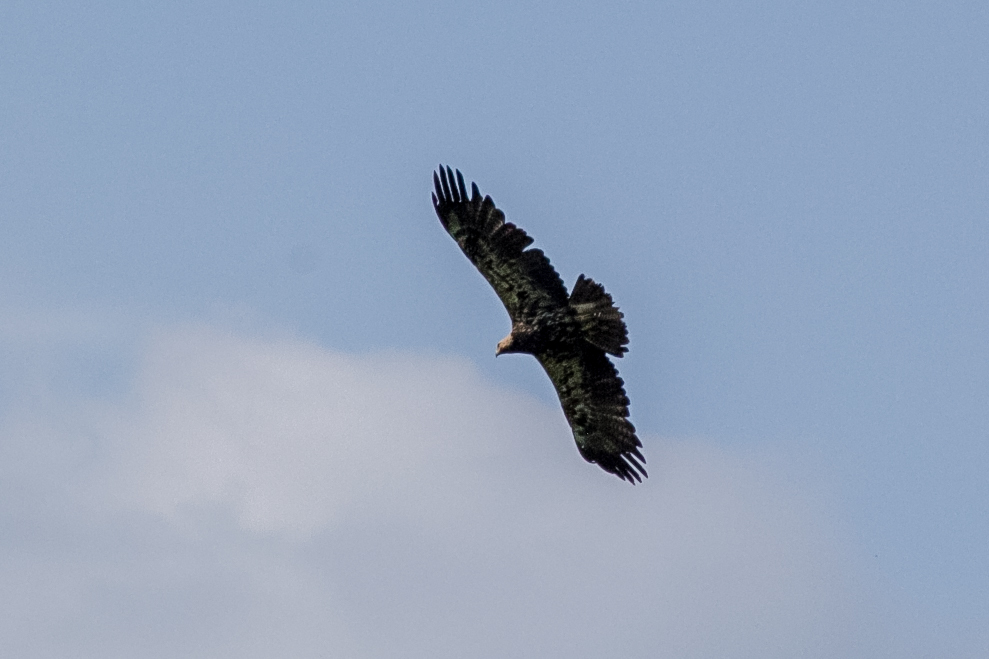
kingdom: Animalia
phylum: Chordata
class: Aves
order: Accipitriformes
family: Accipitridae
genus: Aquila
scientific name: Aquila heliaca
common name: Eastern imperial eagle
